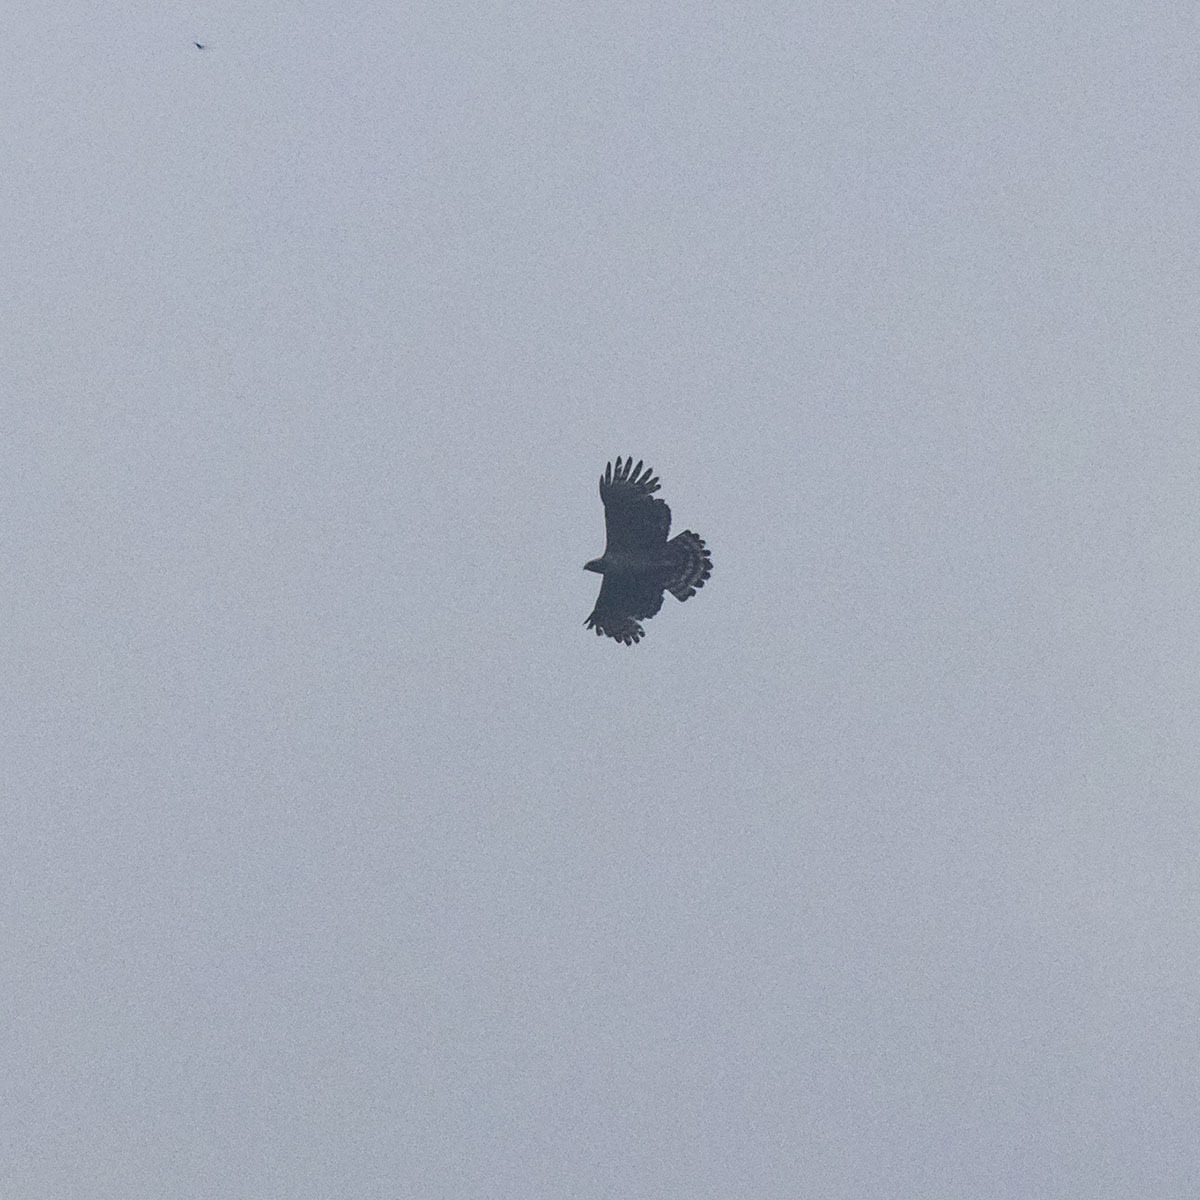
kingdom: Animalia
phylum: Chordata
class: Aves
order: Accipitriformes
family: Accipitridae
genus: Nisaetus
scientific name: Nisaetus nipalensis
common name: Mountain hawk-eagle
